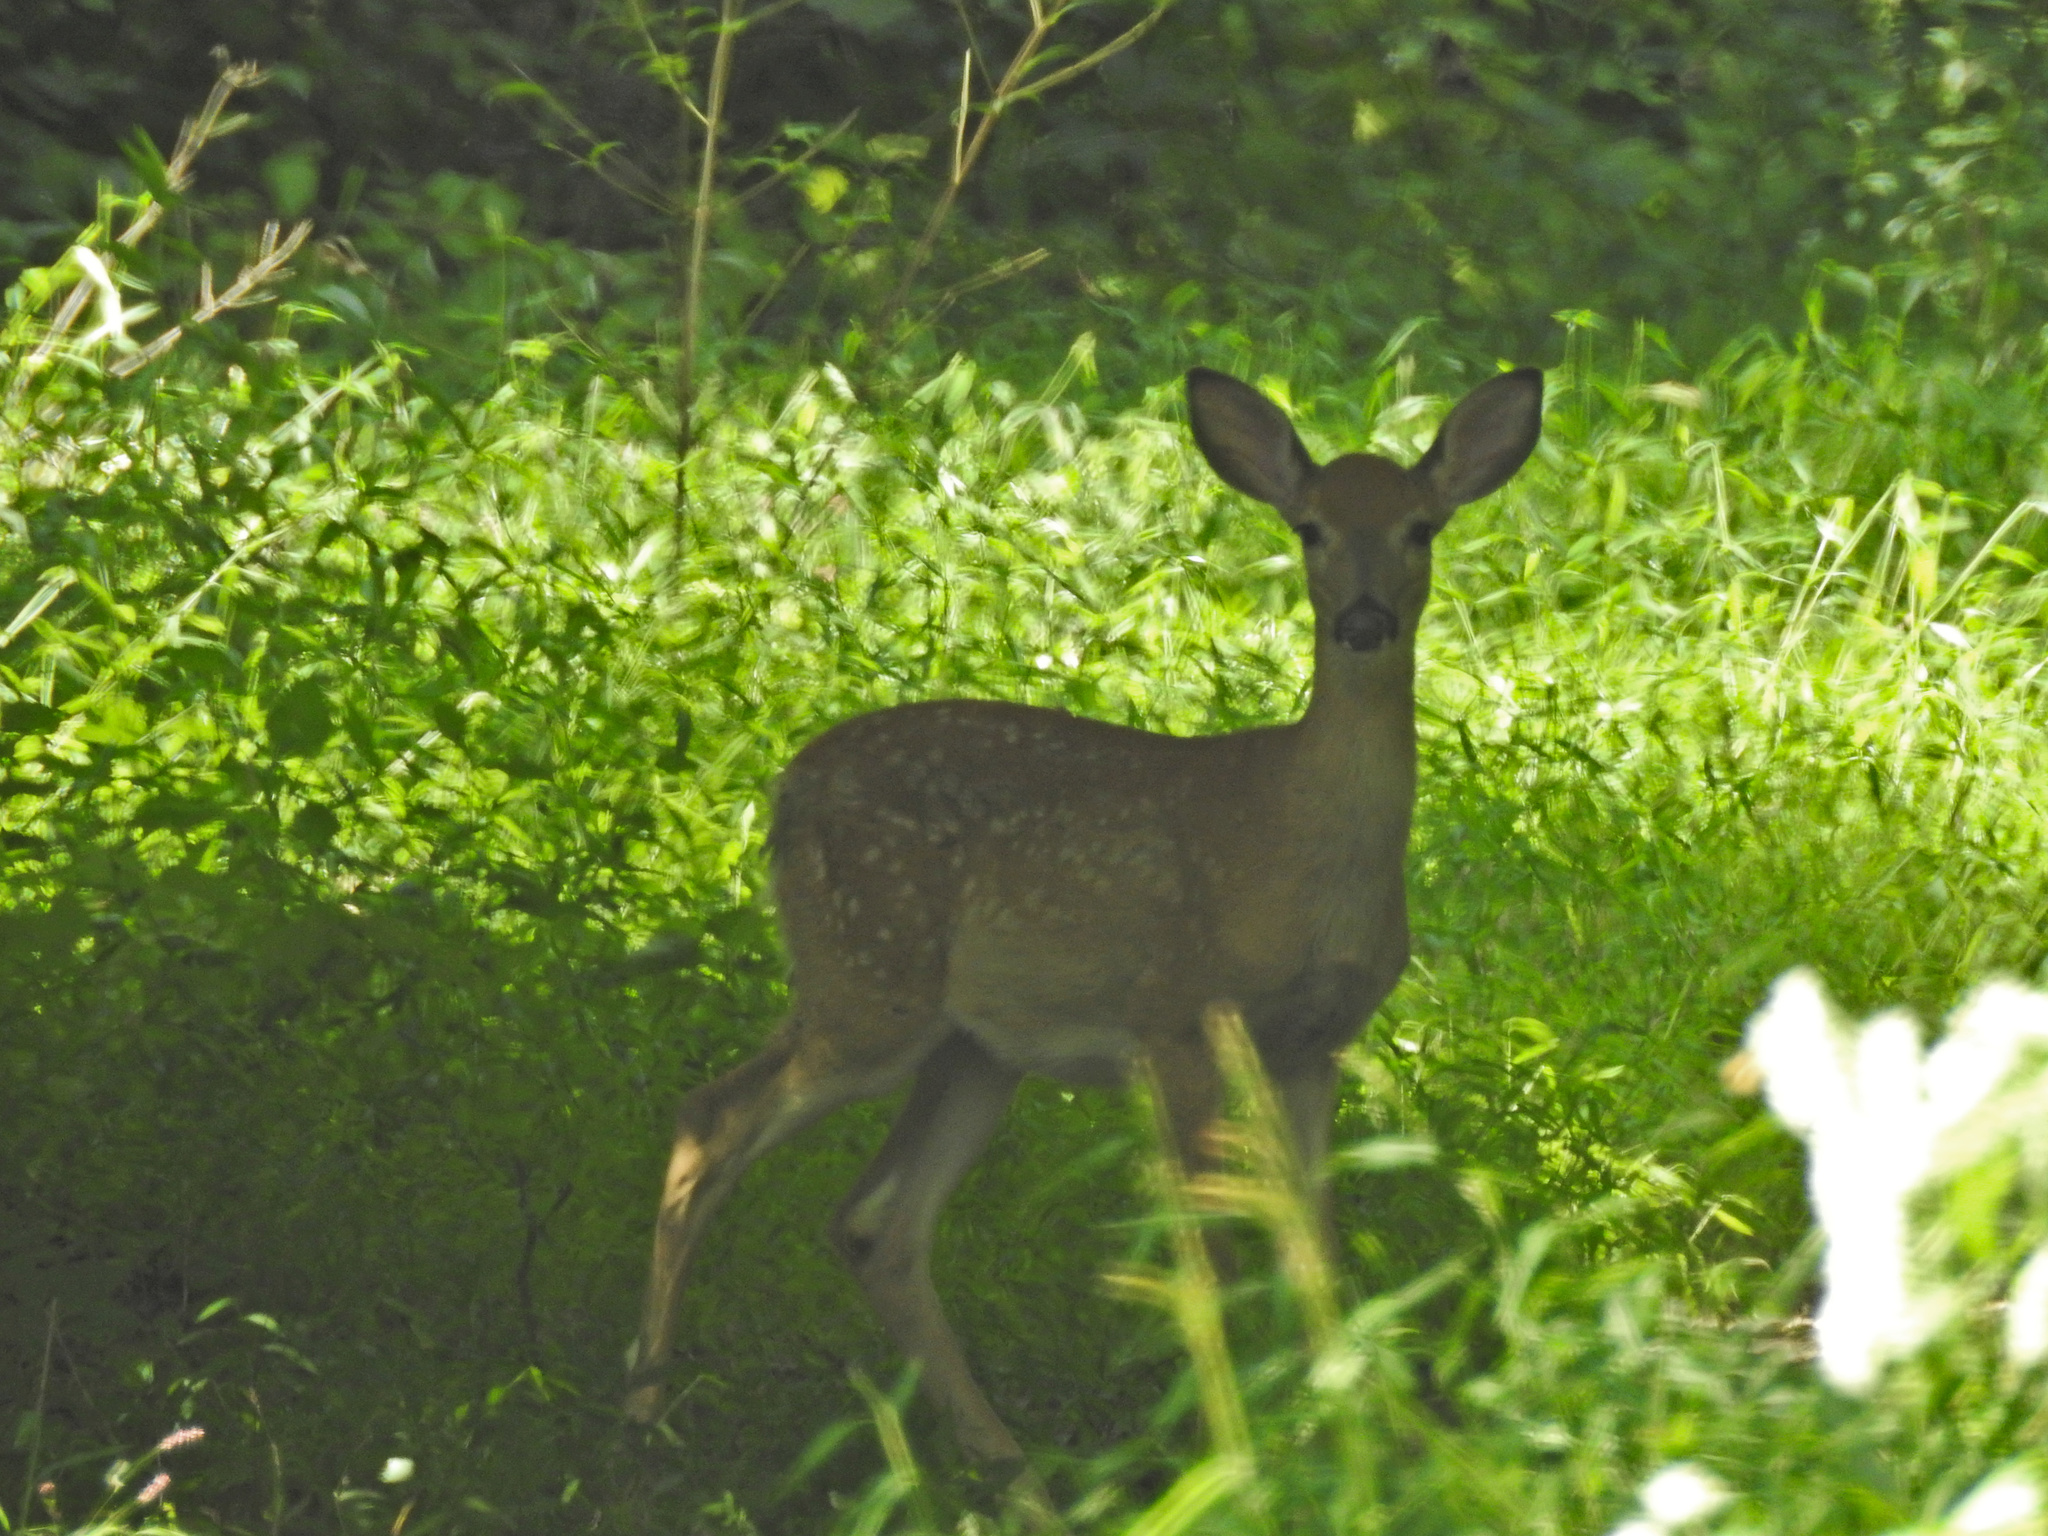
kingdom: Animalia
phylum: Chordata
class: Mammalia
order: Artiodactyla
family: Cervidae
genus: Odocoileus
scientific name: Odocoileus virginianus
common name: White-tailed deer
